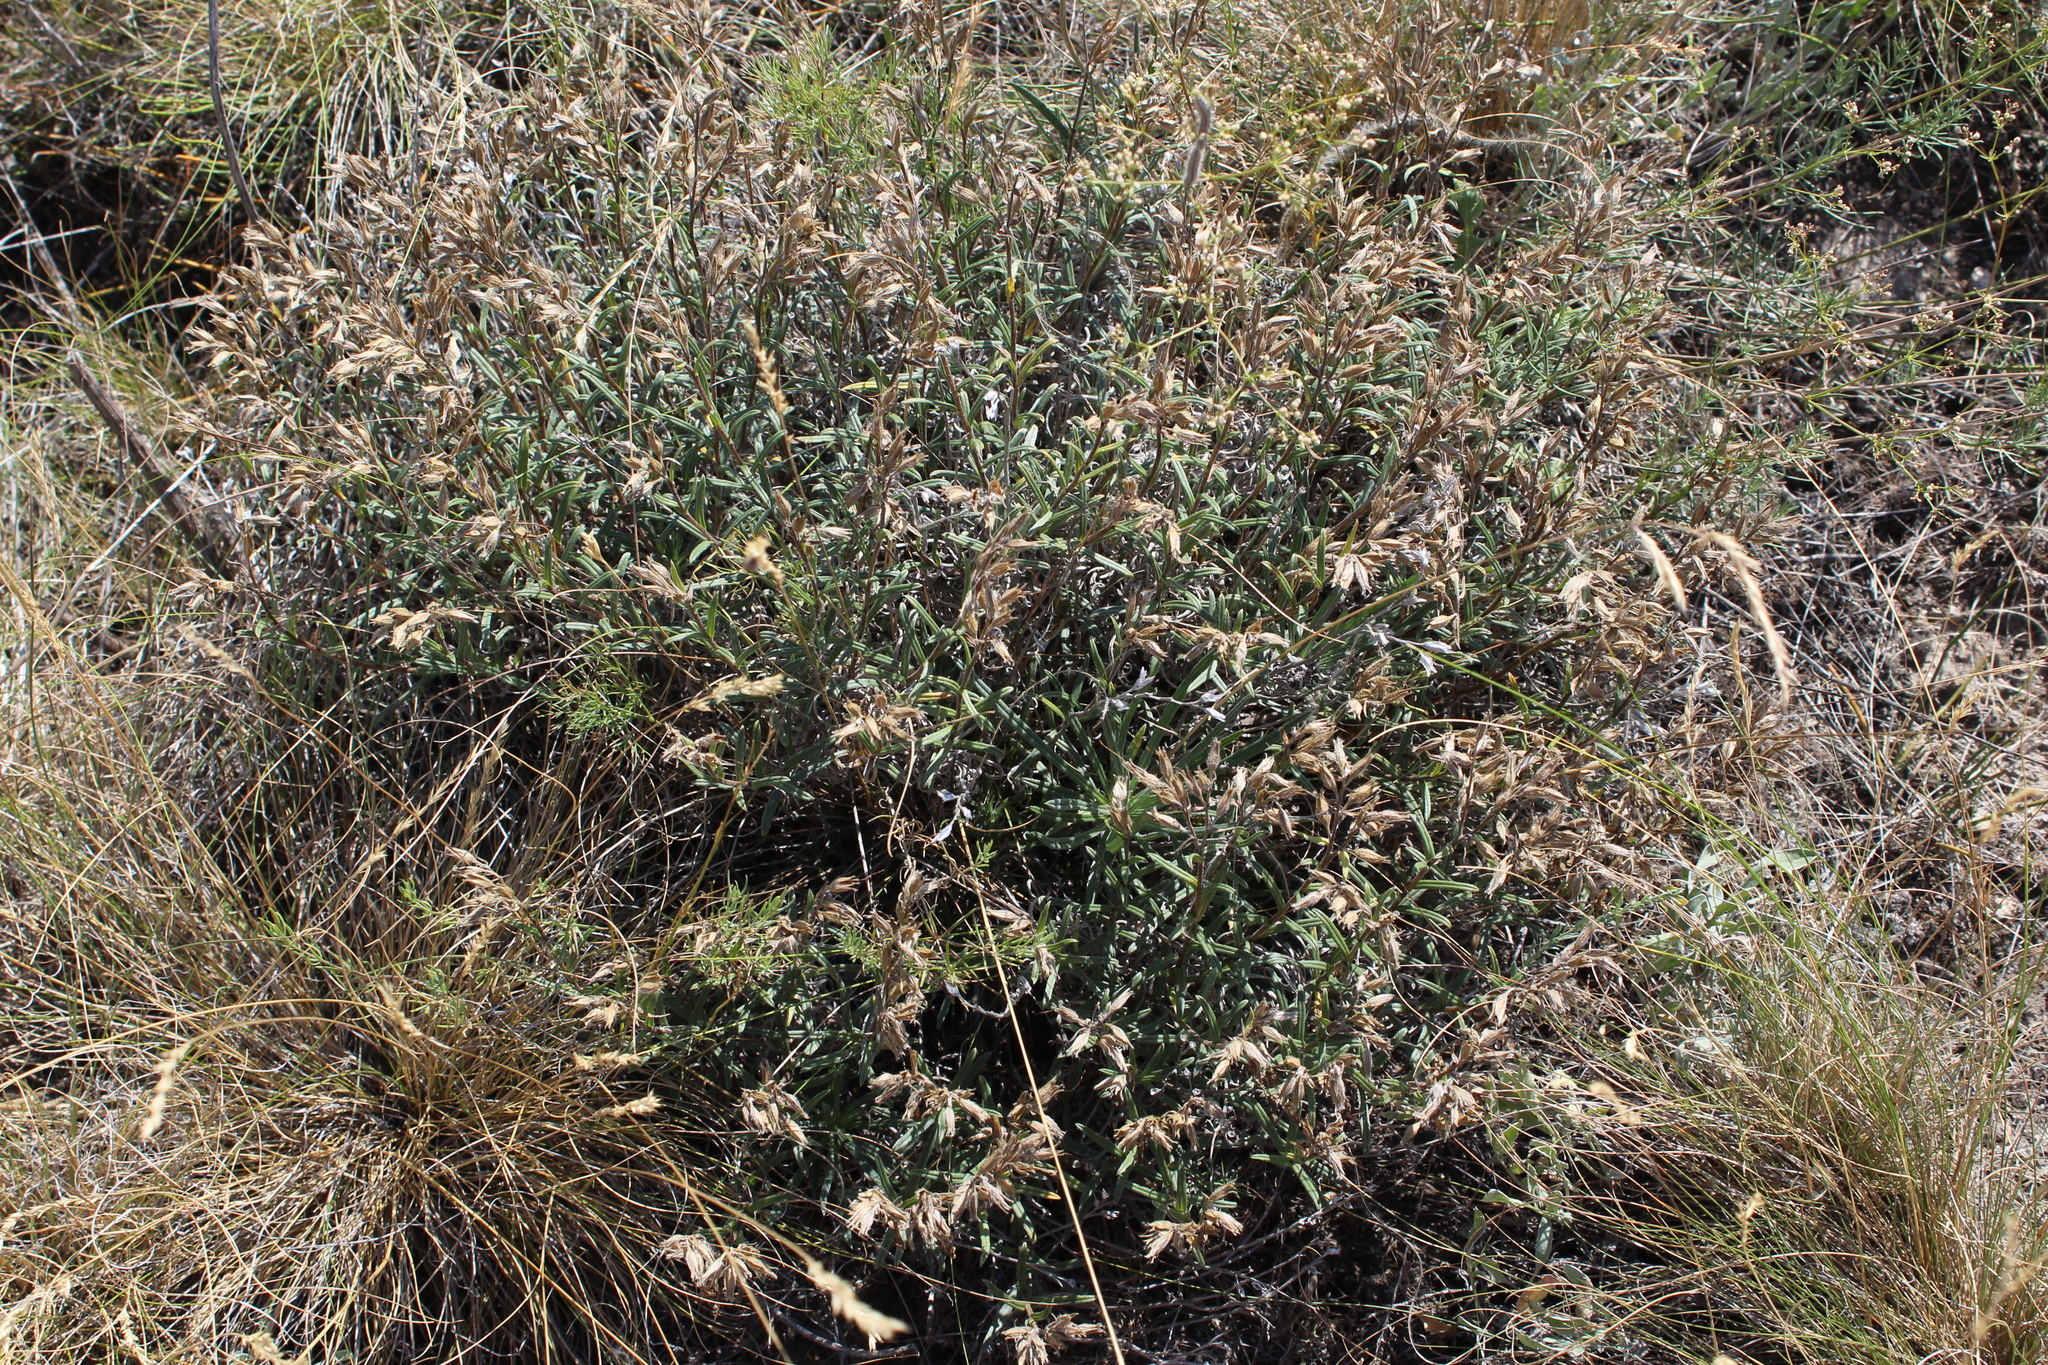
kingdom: Plantae
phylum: Tracheophyta
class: Magnoliopsida
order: Boraginales
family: Boraginaceae
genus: Onosma
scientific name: Onosma simplicissima
